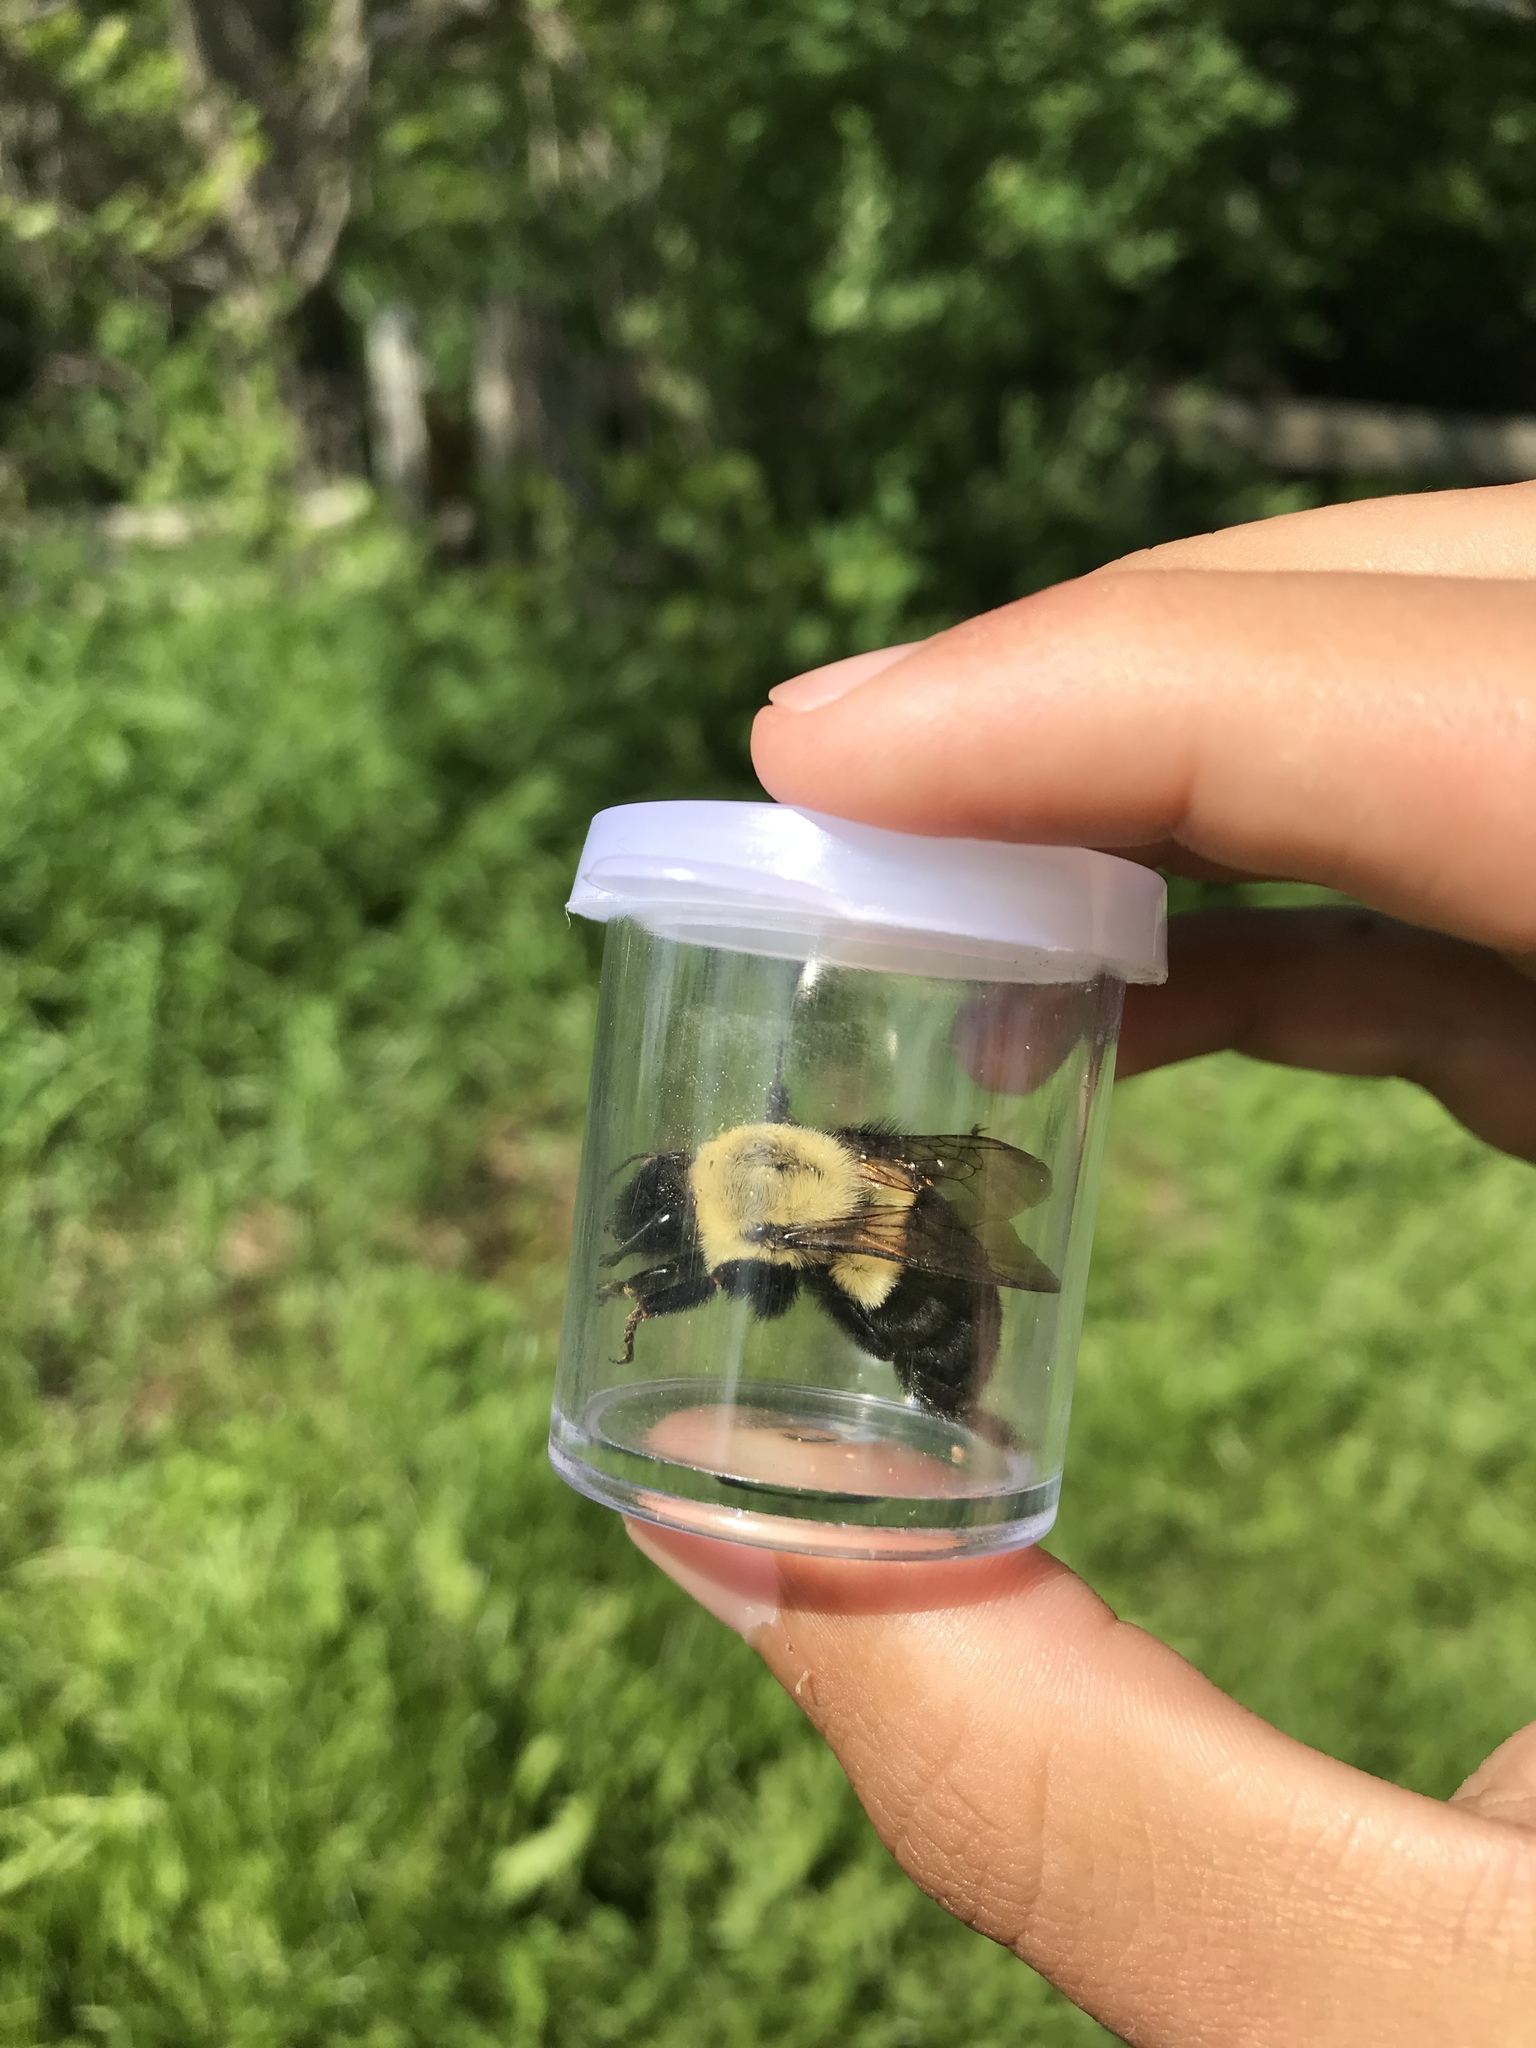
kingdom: Animalia
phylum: Arthropoda
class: Insecta
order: Hymenoptera
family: Apidae
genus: Bombus
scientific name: Bombus impatiens
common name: Common eastern bumble bee
